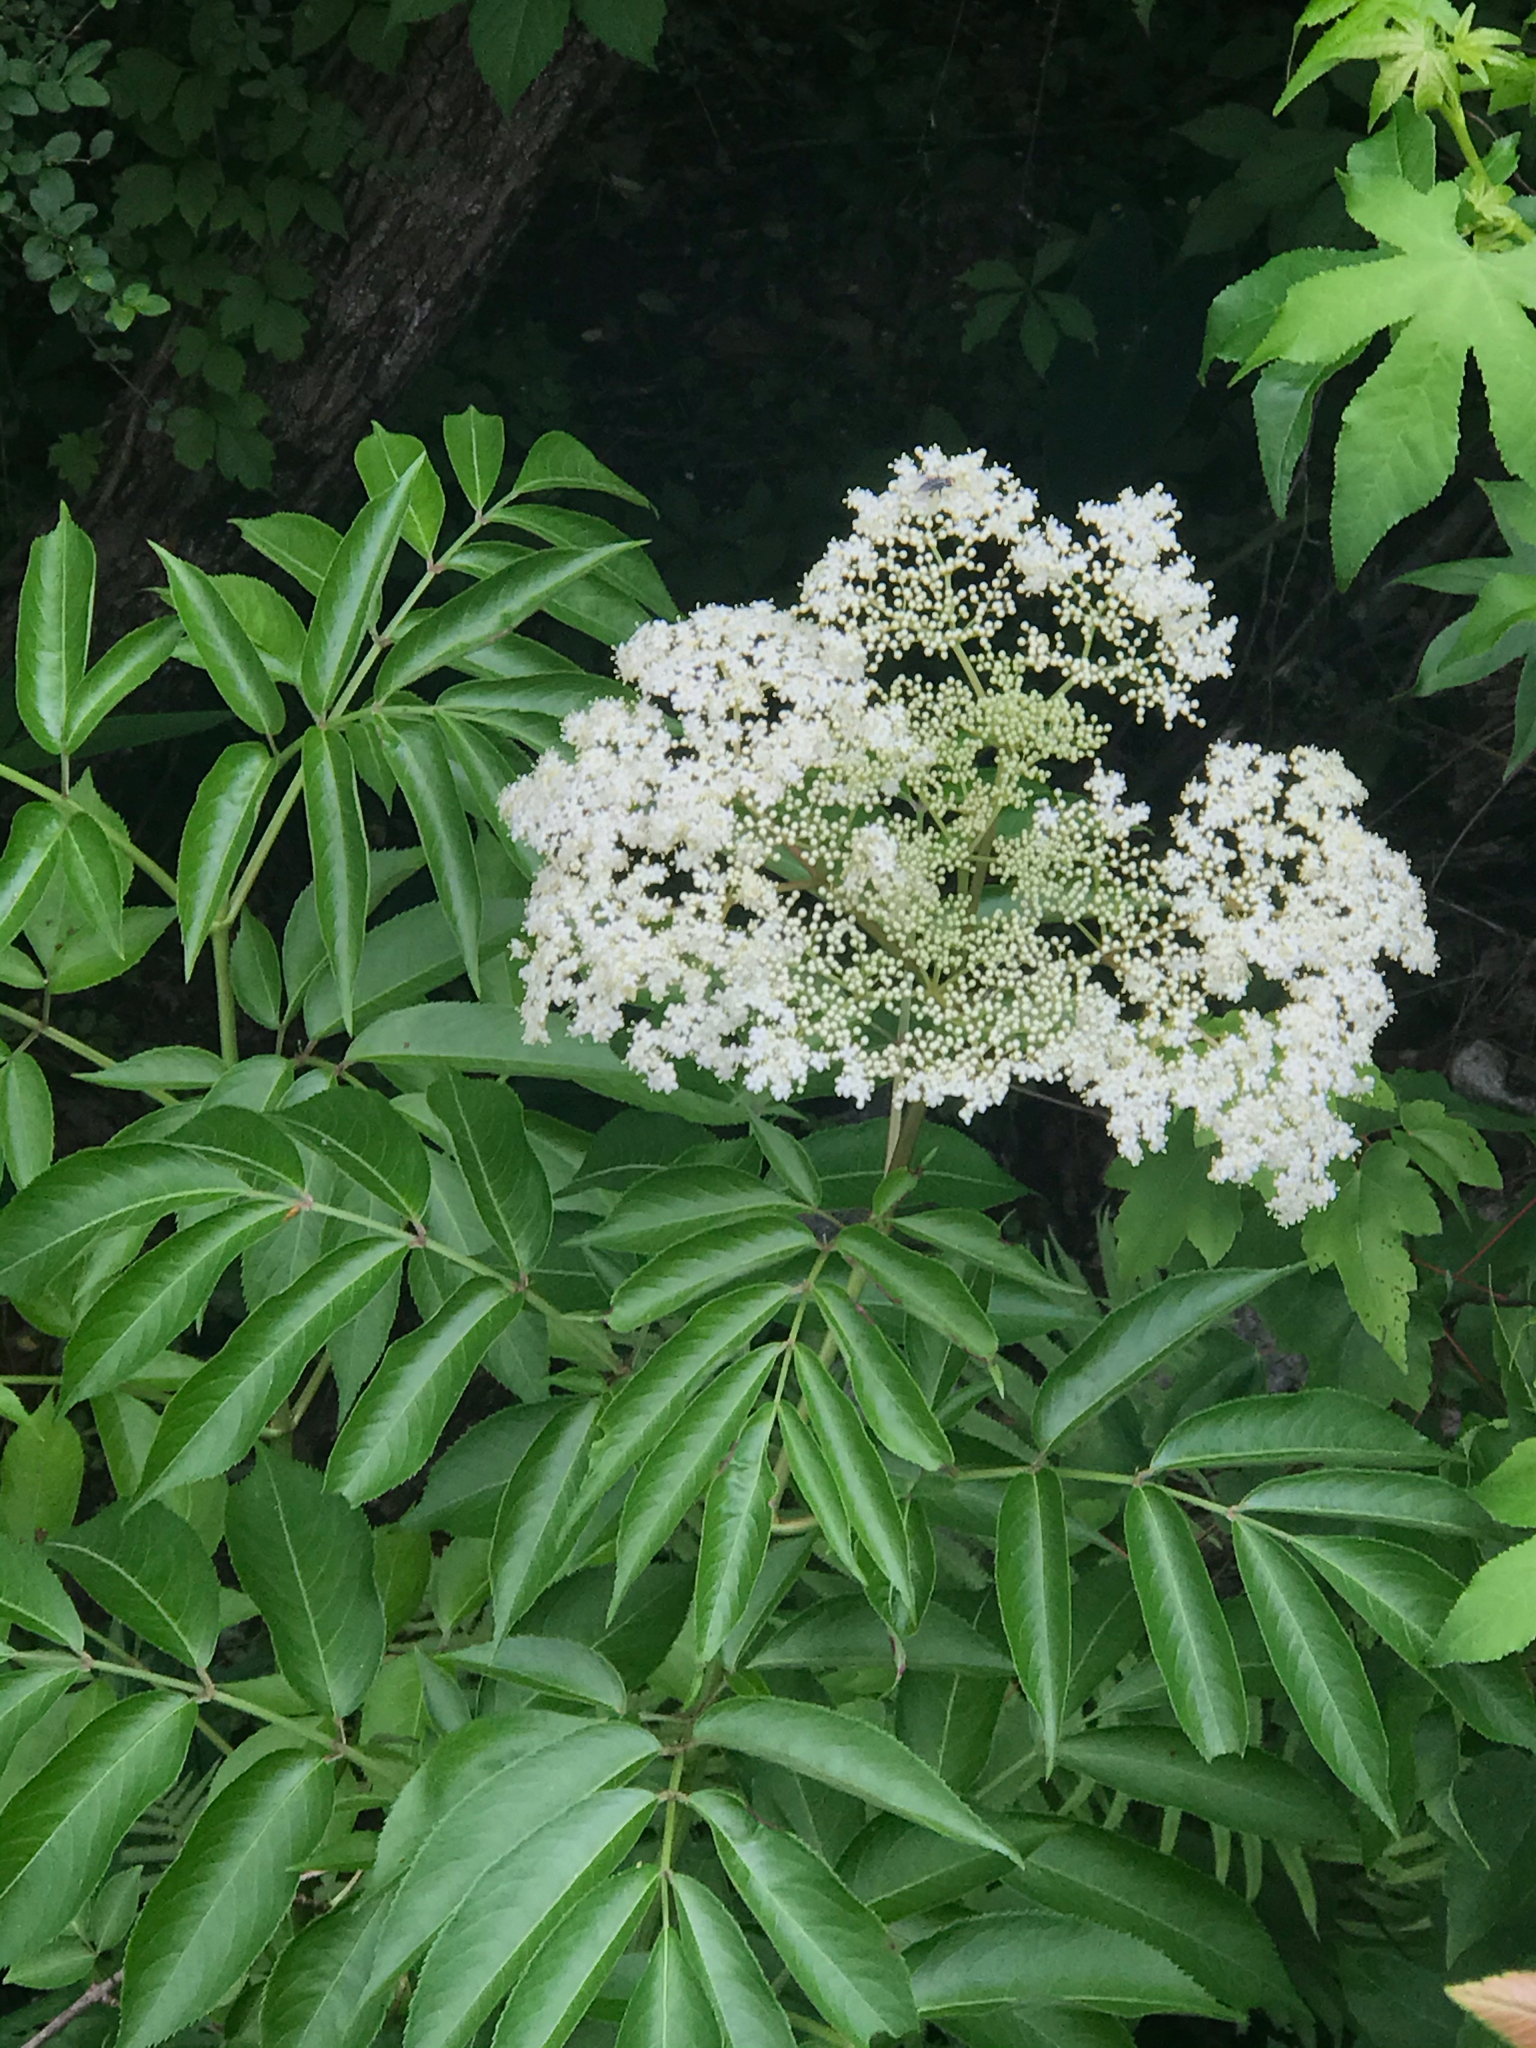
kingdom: Plantae
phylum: Tracheophyta
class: Magnoliopsida
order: Dipsacales
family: Viburnaceae
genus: Sambucus
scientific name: Sambucus canadensis
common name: American elder
